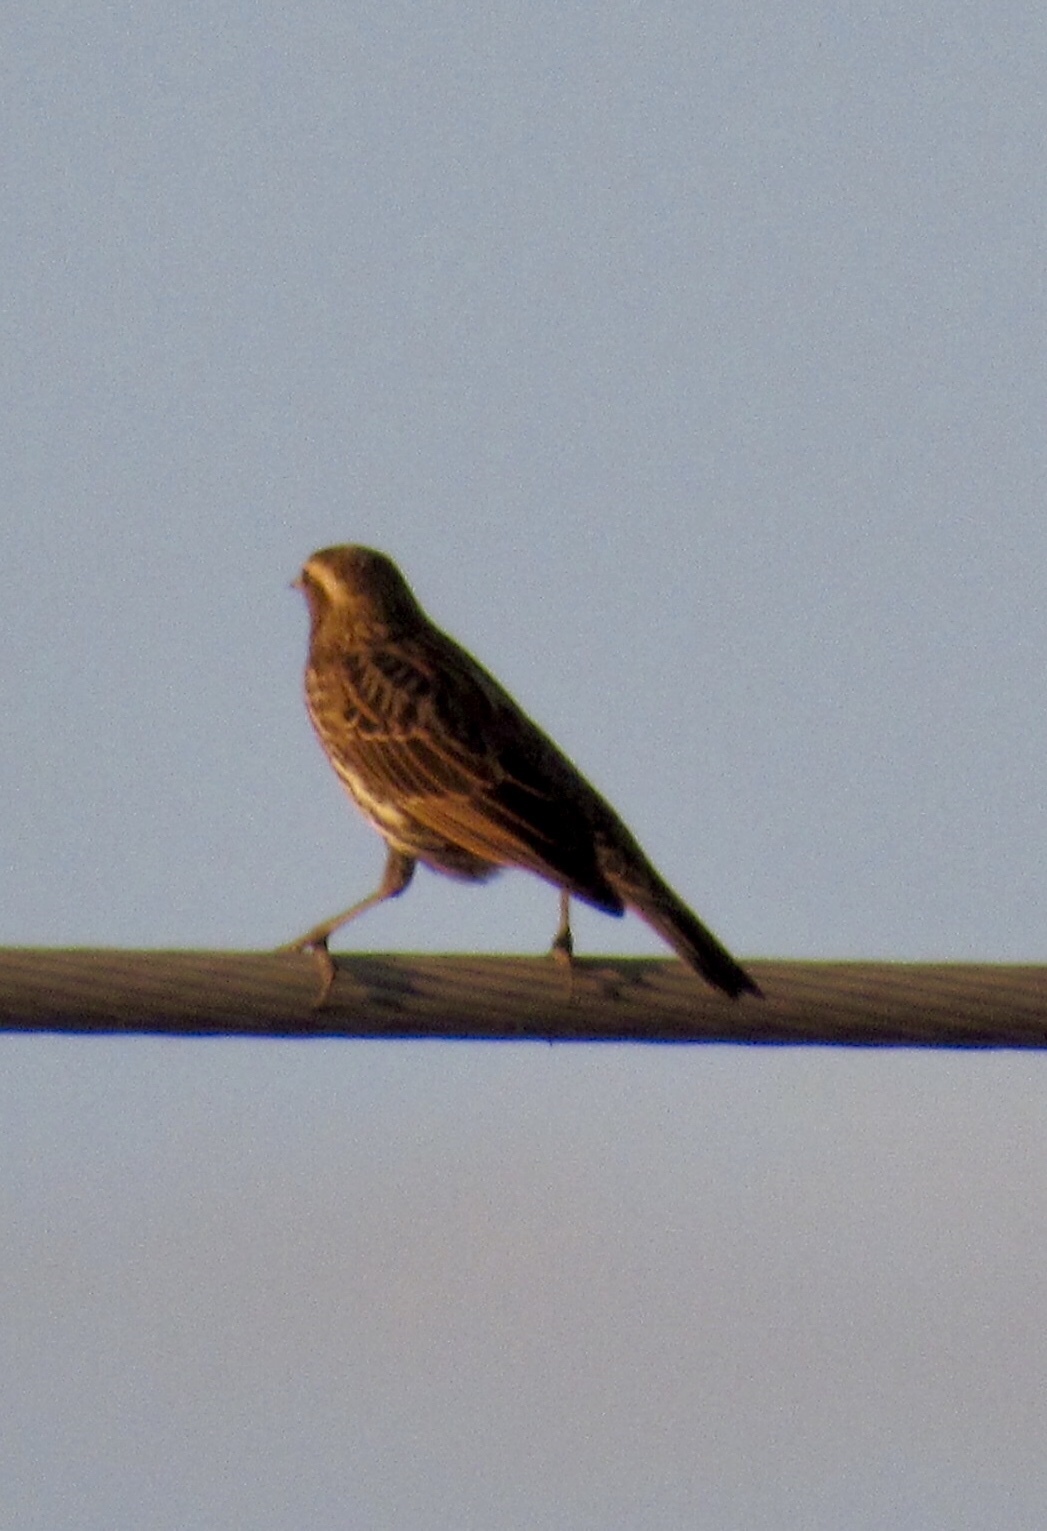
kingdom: Animalia
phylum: Chordata
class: Aves
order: Passeriformes
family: Icteridae
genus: Agelaius
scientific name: Agelaius phoeniceus
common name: Red-winged blackbird
